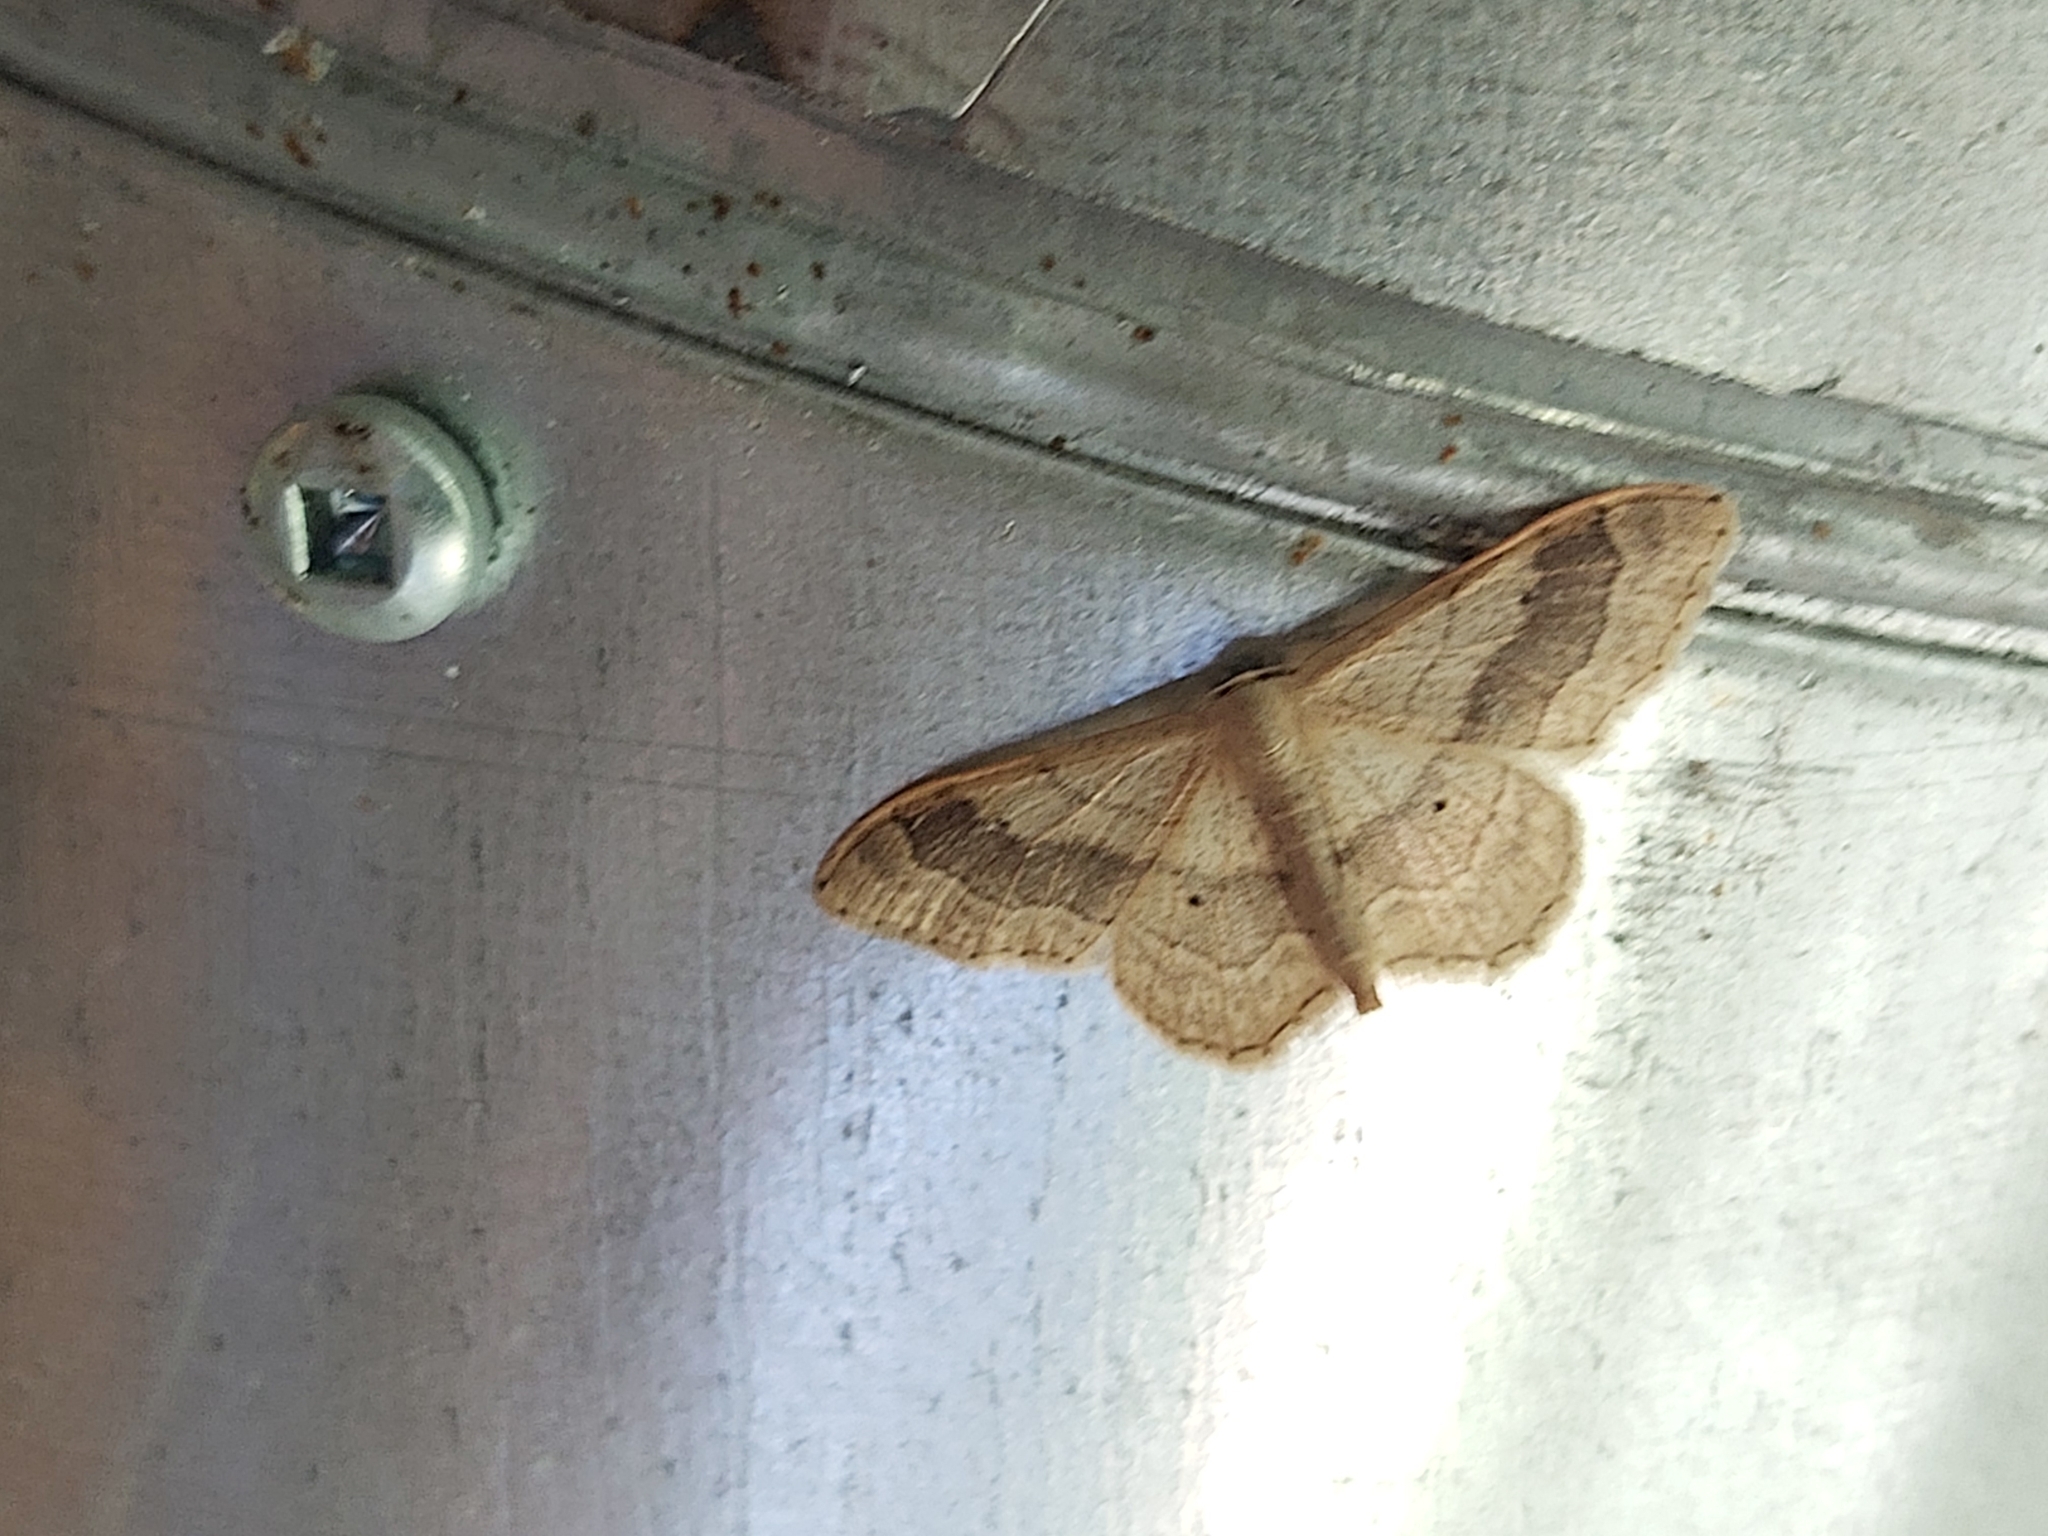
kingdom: Animalia
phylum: Arthropoda
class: Insecta
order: Lepidoptera
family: Geometridae
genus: Idaea
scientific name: Idaea aversata
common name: Riband wave
